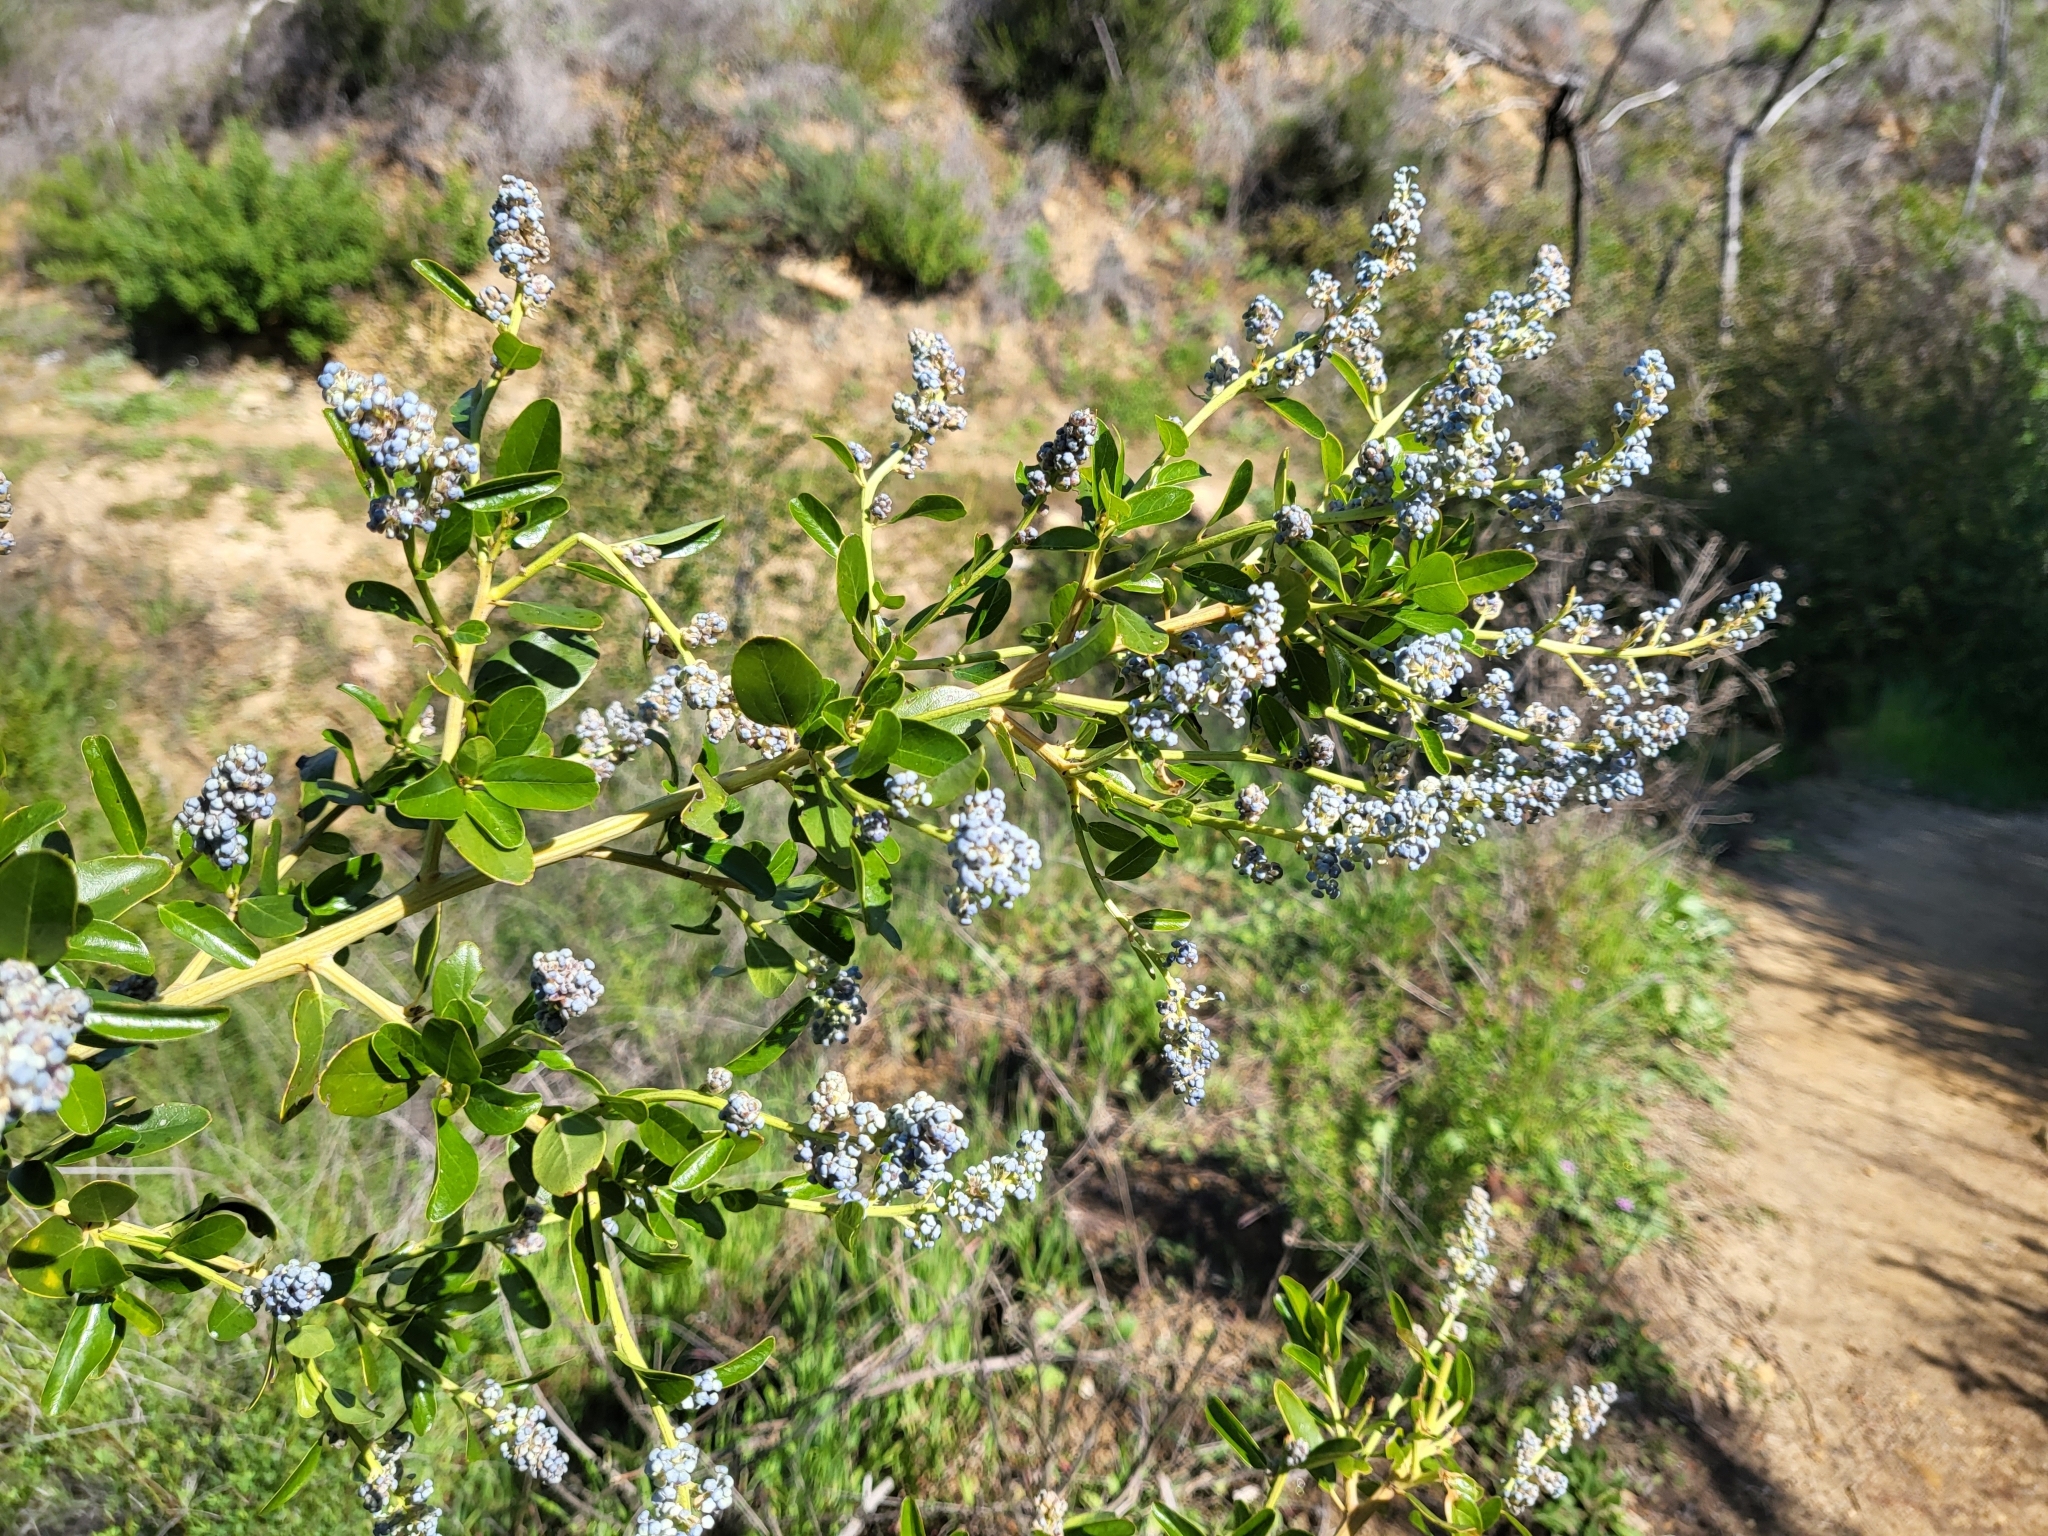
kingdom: Plantae
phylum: Tracheophyta
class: Magnoliopsida
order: Rosales
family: Rhamnaceae
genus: Ceanothus
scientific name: Ceanothus spinosus
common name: Greenbark whitethorn
